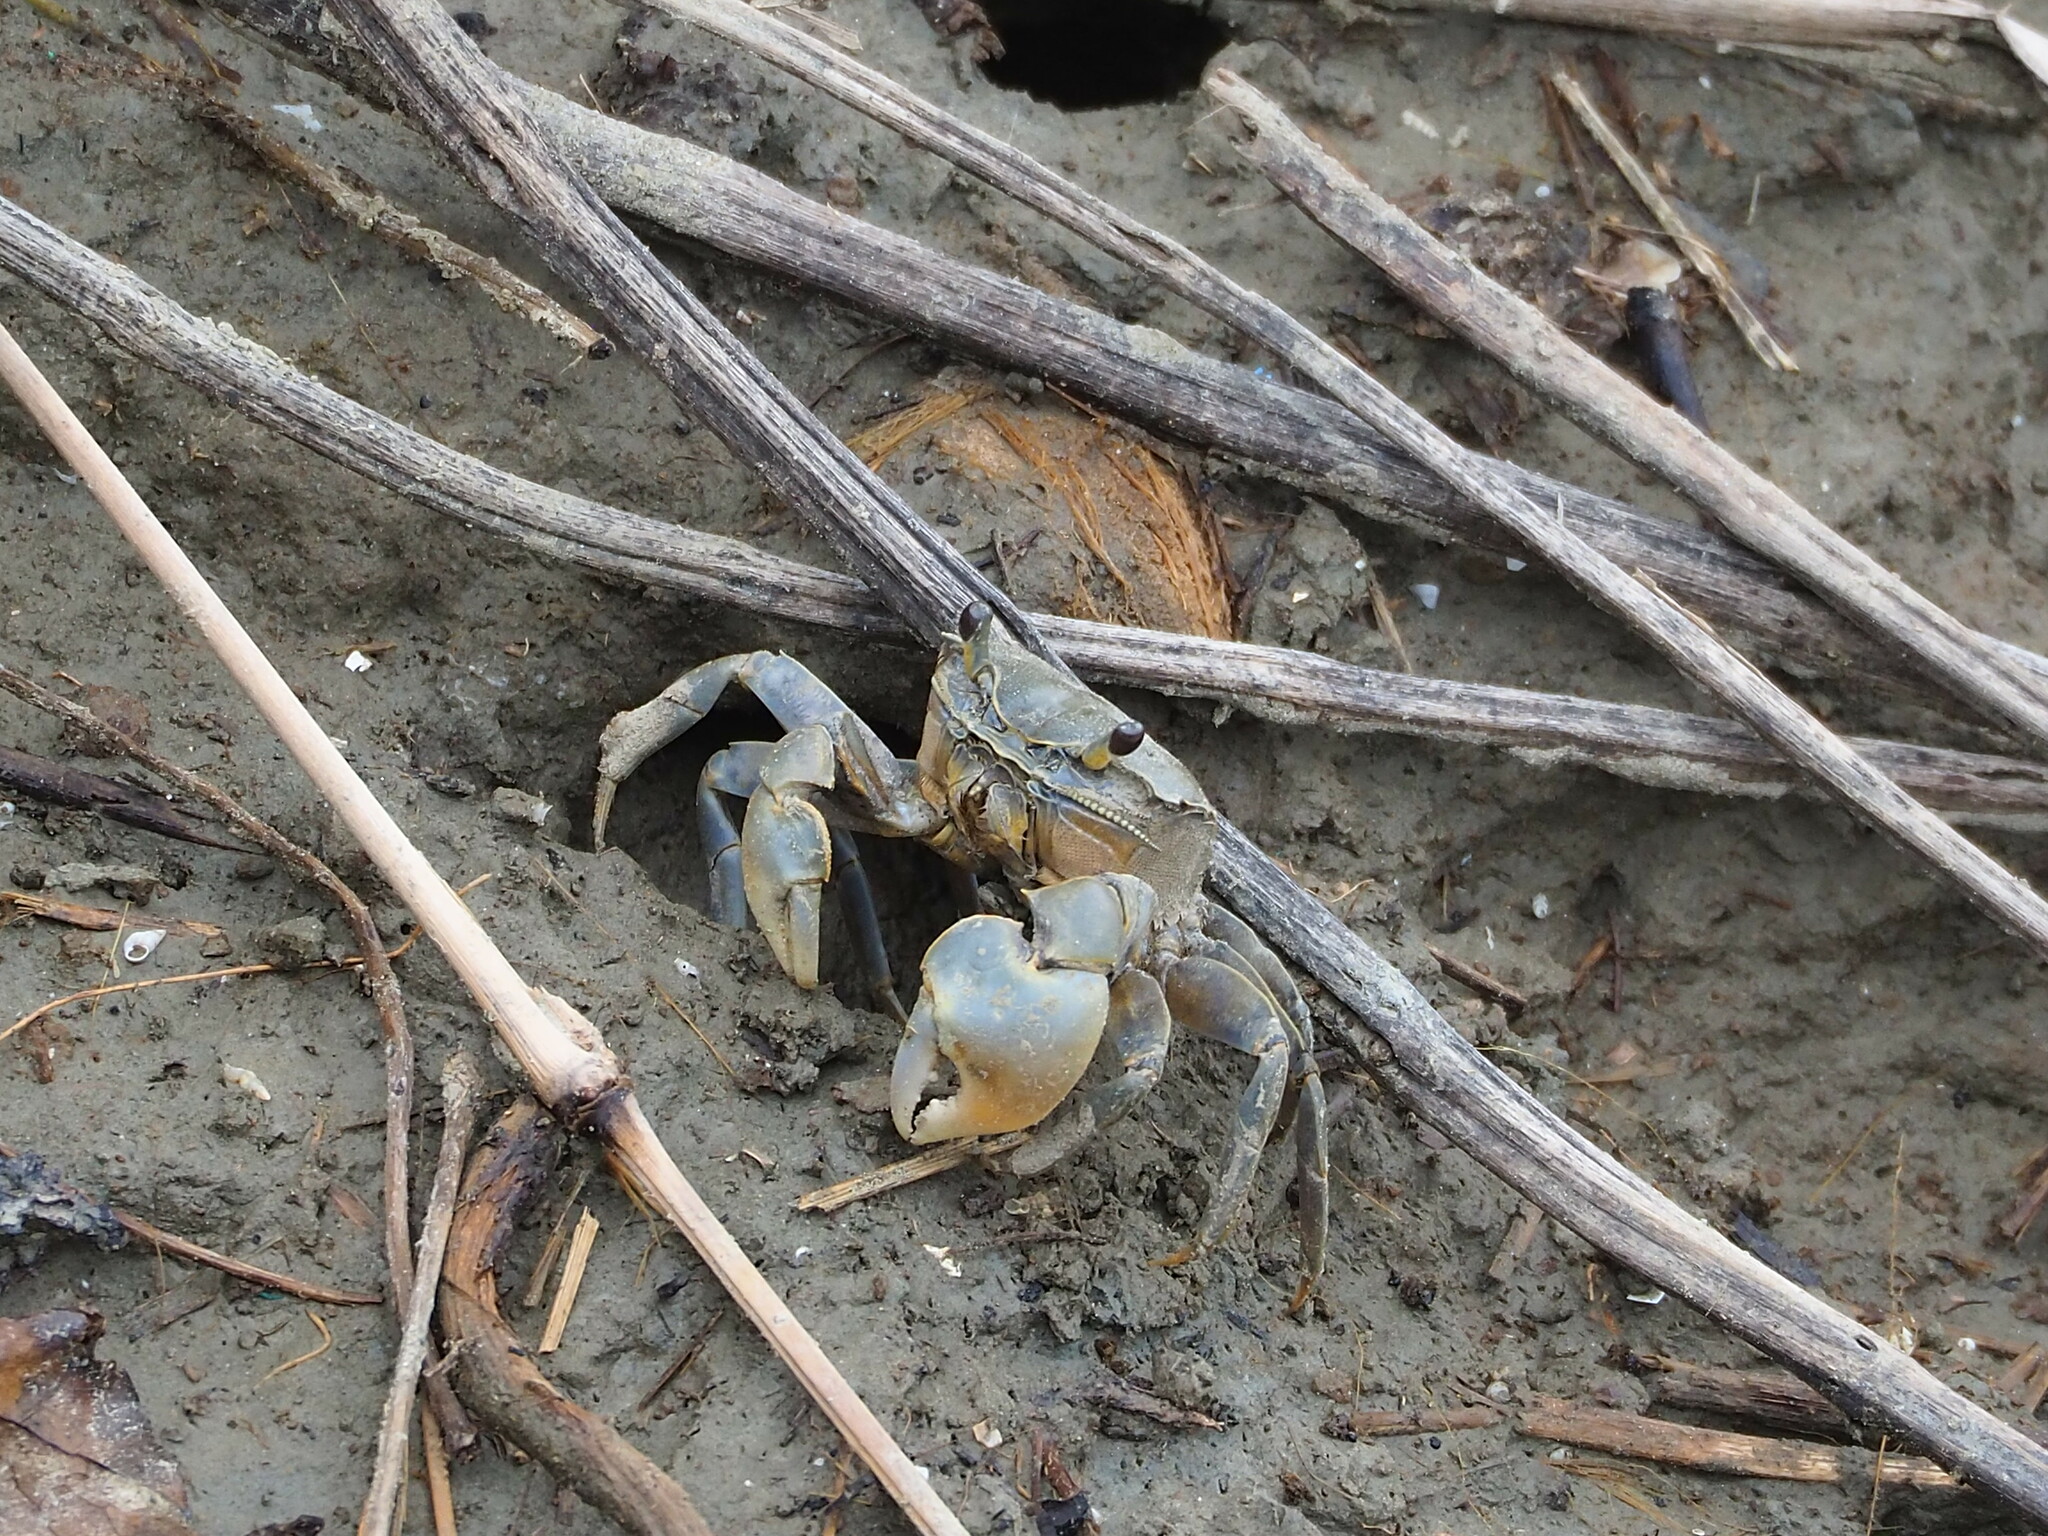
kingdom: Animalia
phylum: Arthropoda
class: Malacostraca
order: Decapoda
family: Varunidae
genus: Helice
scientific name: Helice formosensis
